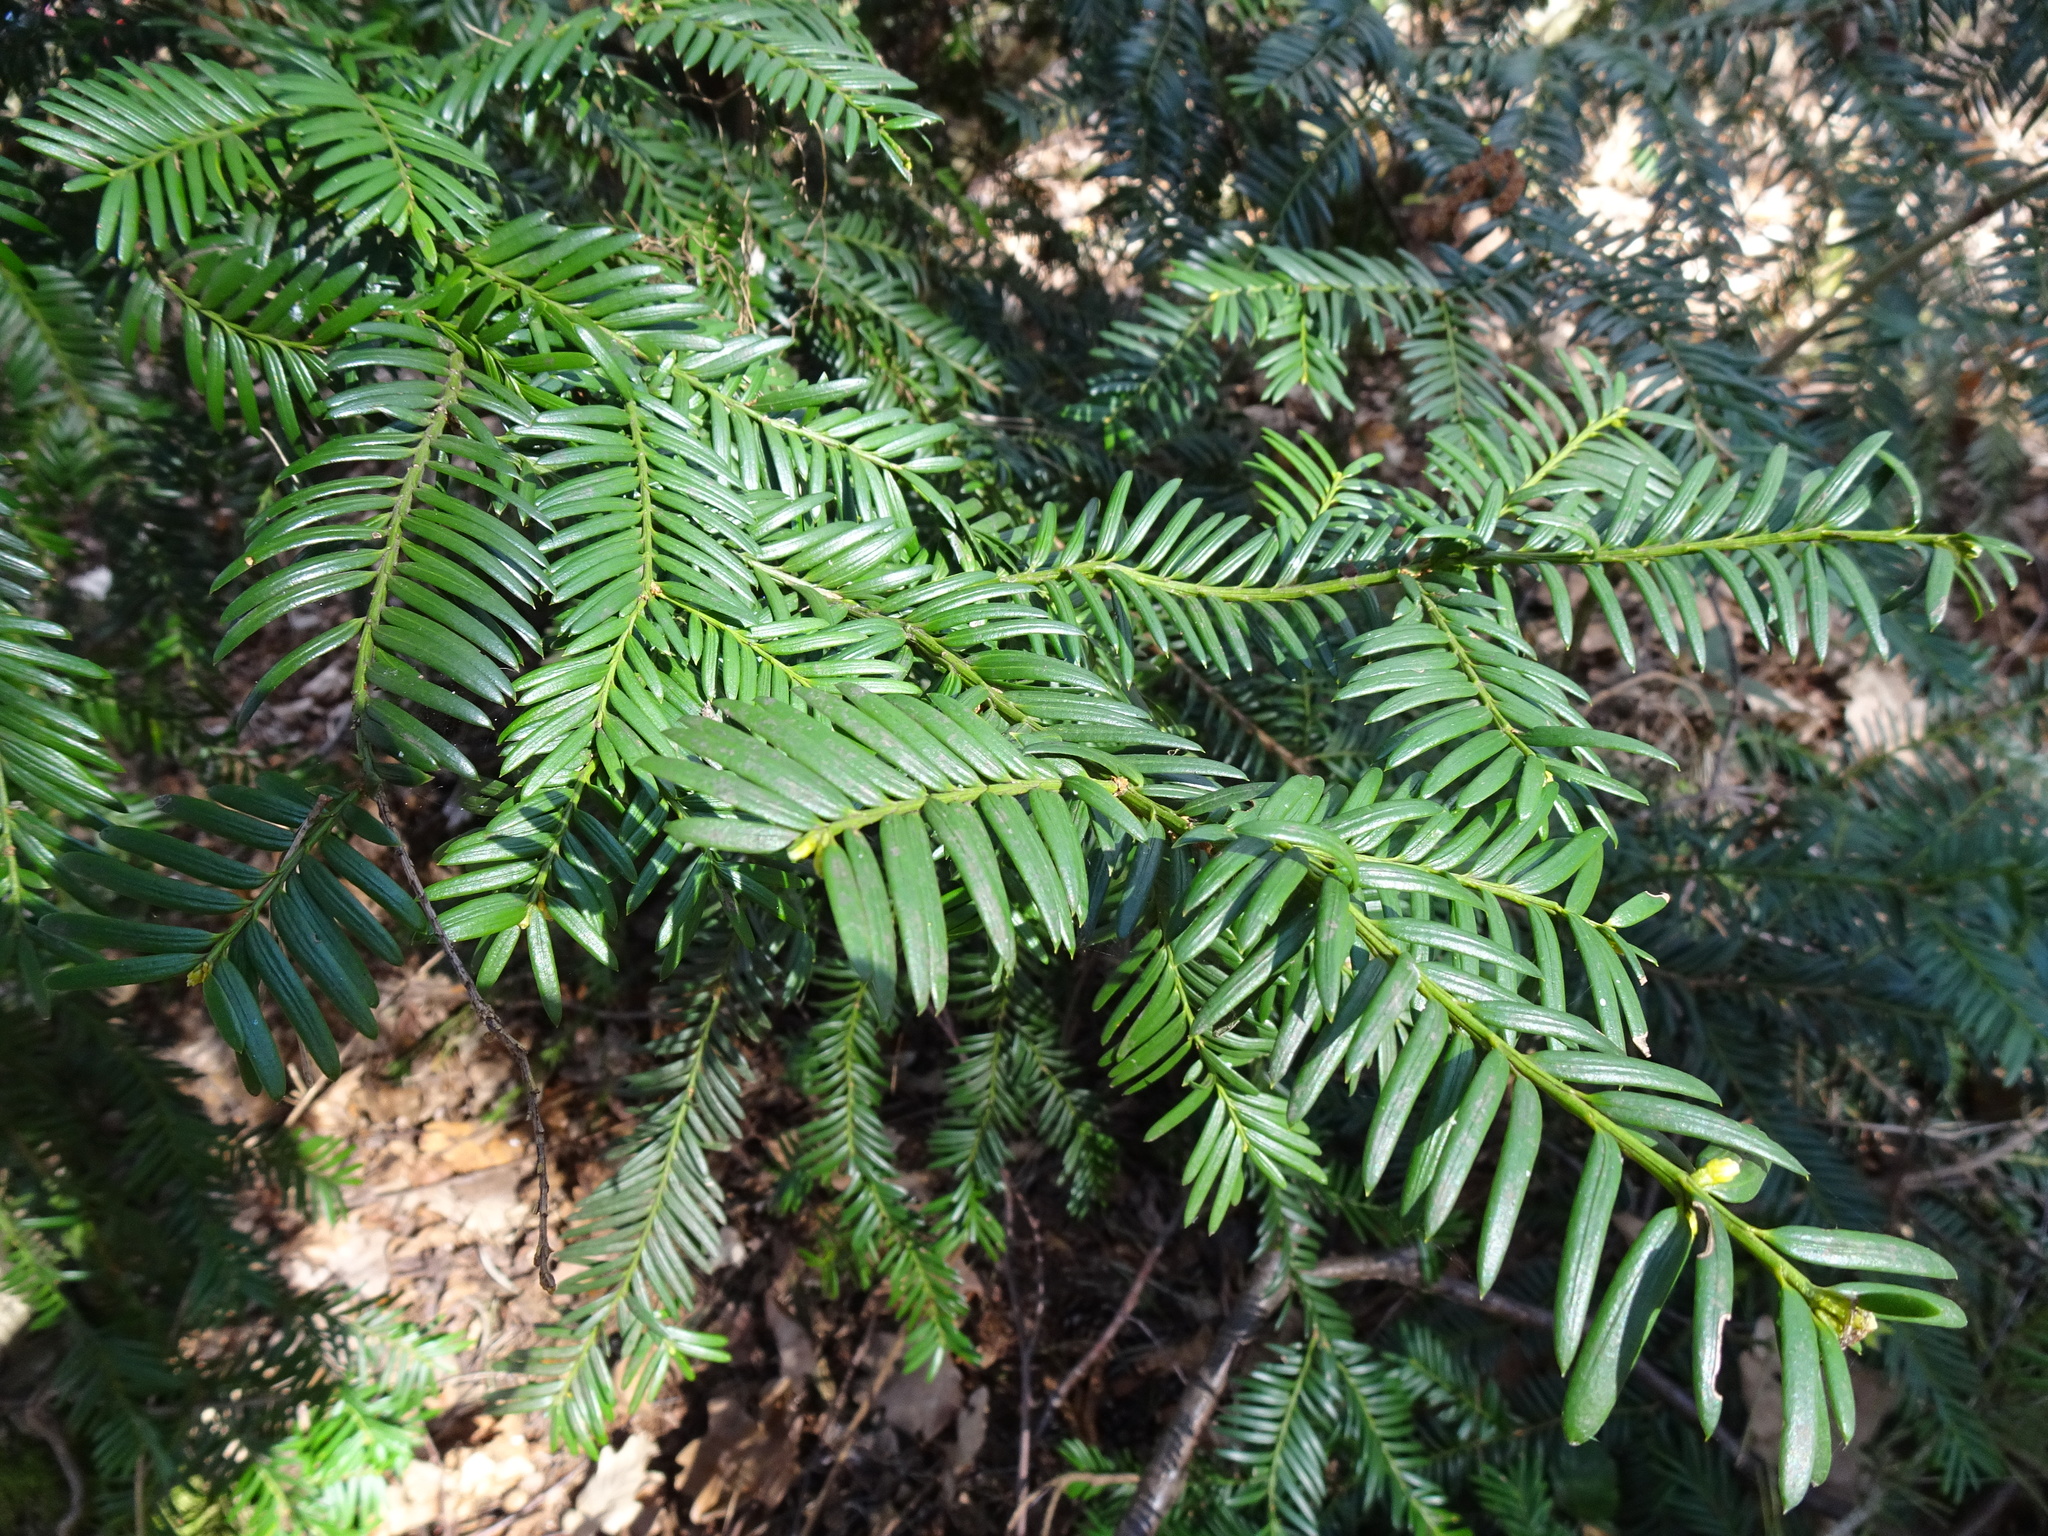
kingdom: Plantae
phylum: Tracheophyta
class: Pinopsida
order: Pinales
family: Taxaceae
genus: Taxus
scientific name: Taxus baccata
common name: Yew
